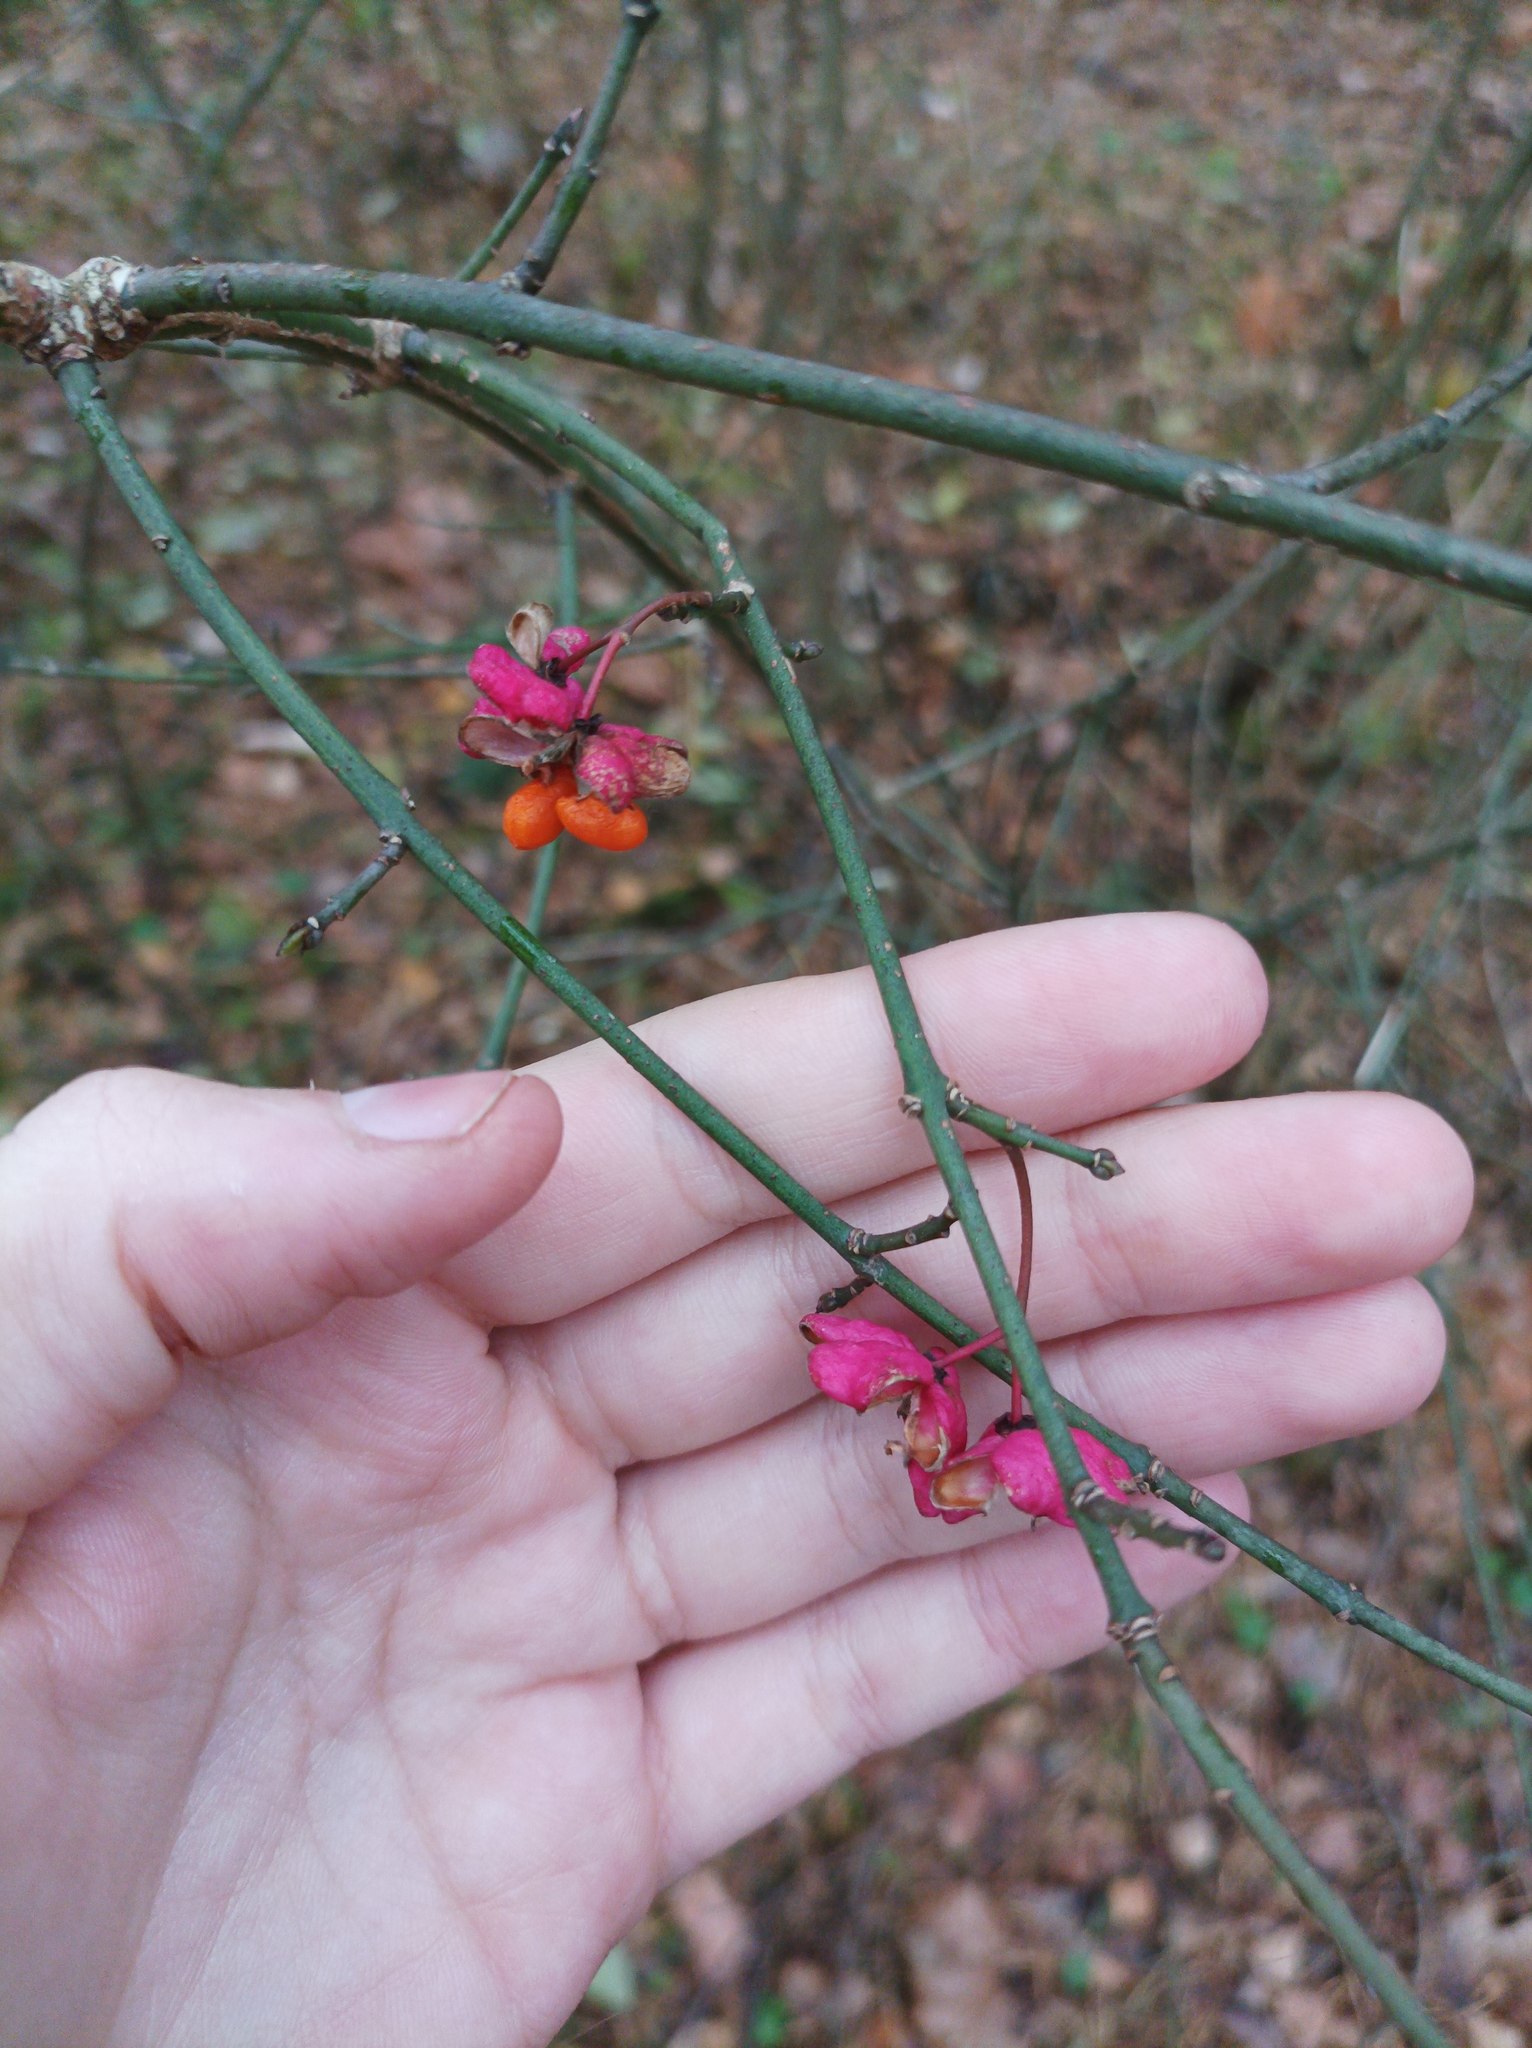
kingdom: Plantae
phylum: Tracheophyta
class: Magnoliopsida
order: Celastrales
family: Celastraceae
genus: Euonymus
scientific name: Euonymus europaeus
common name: Spindle
